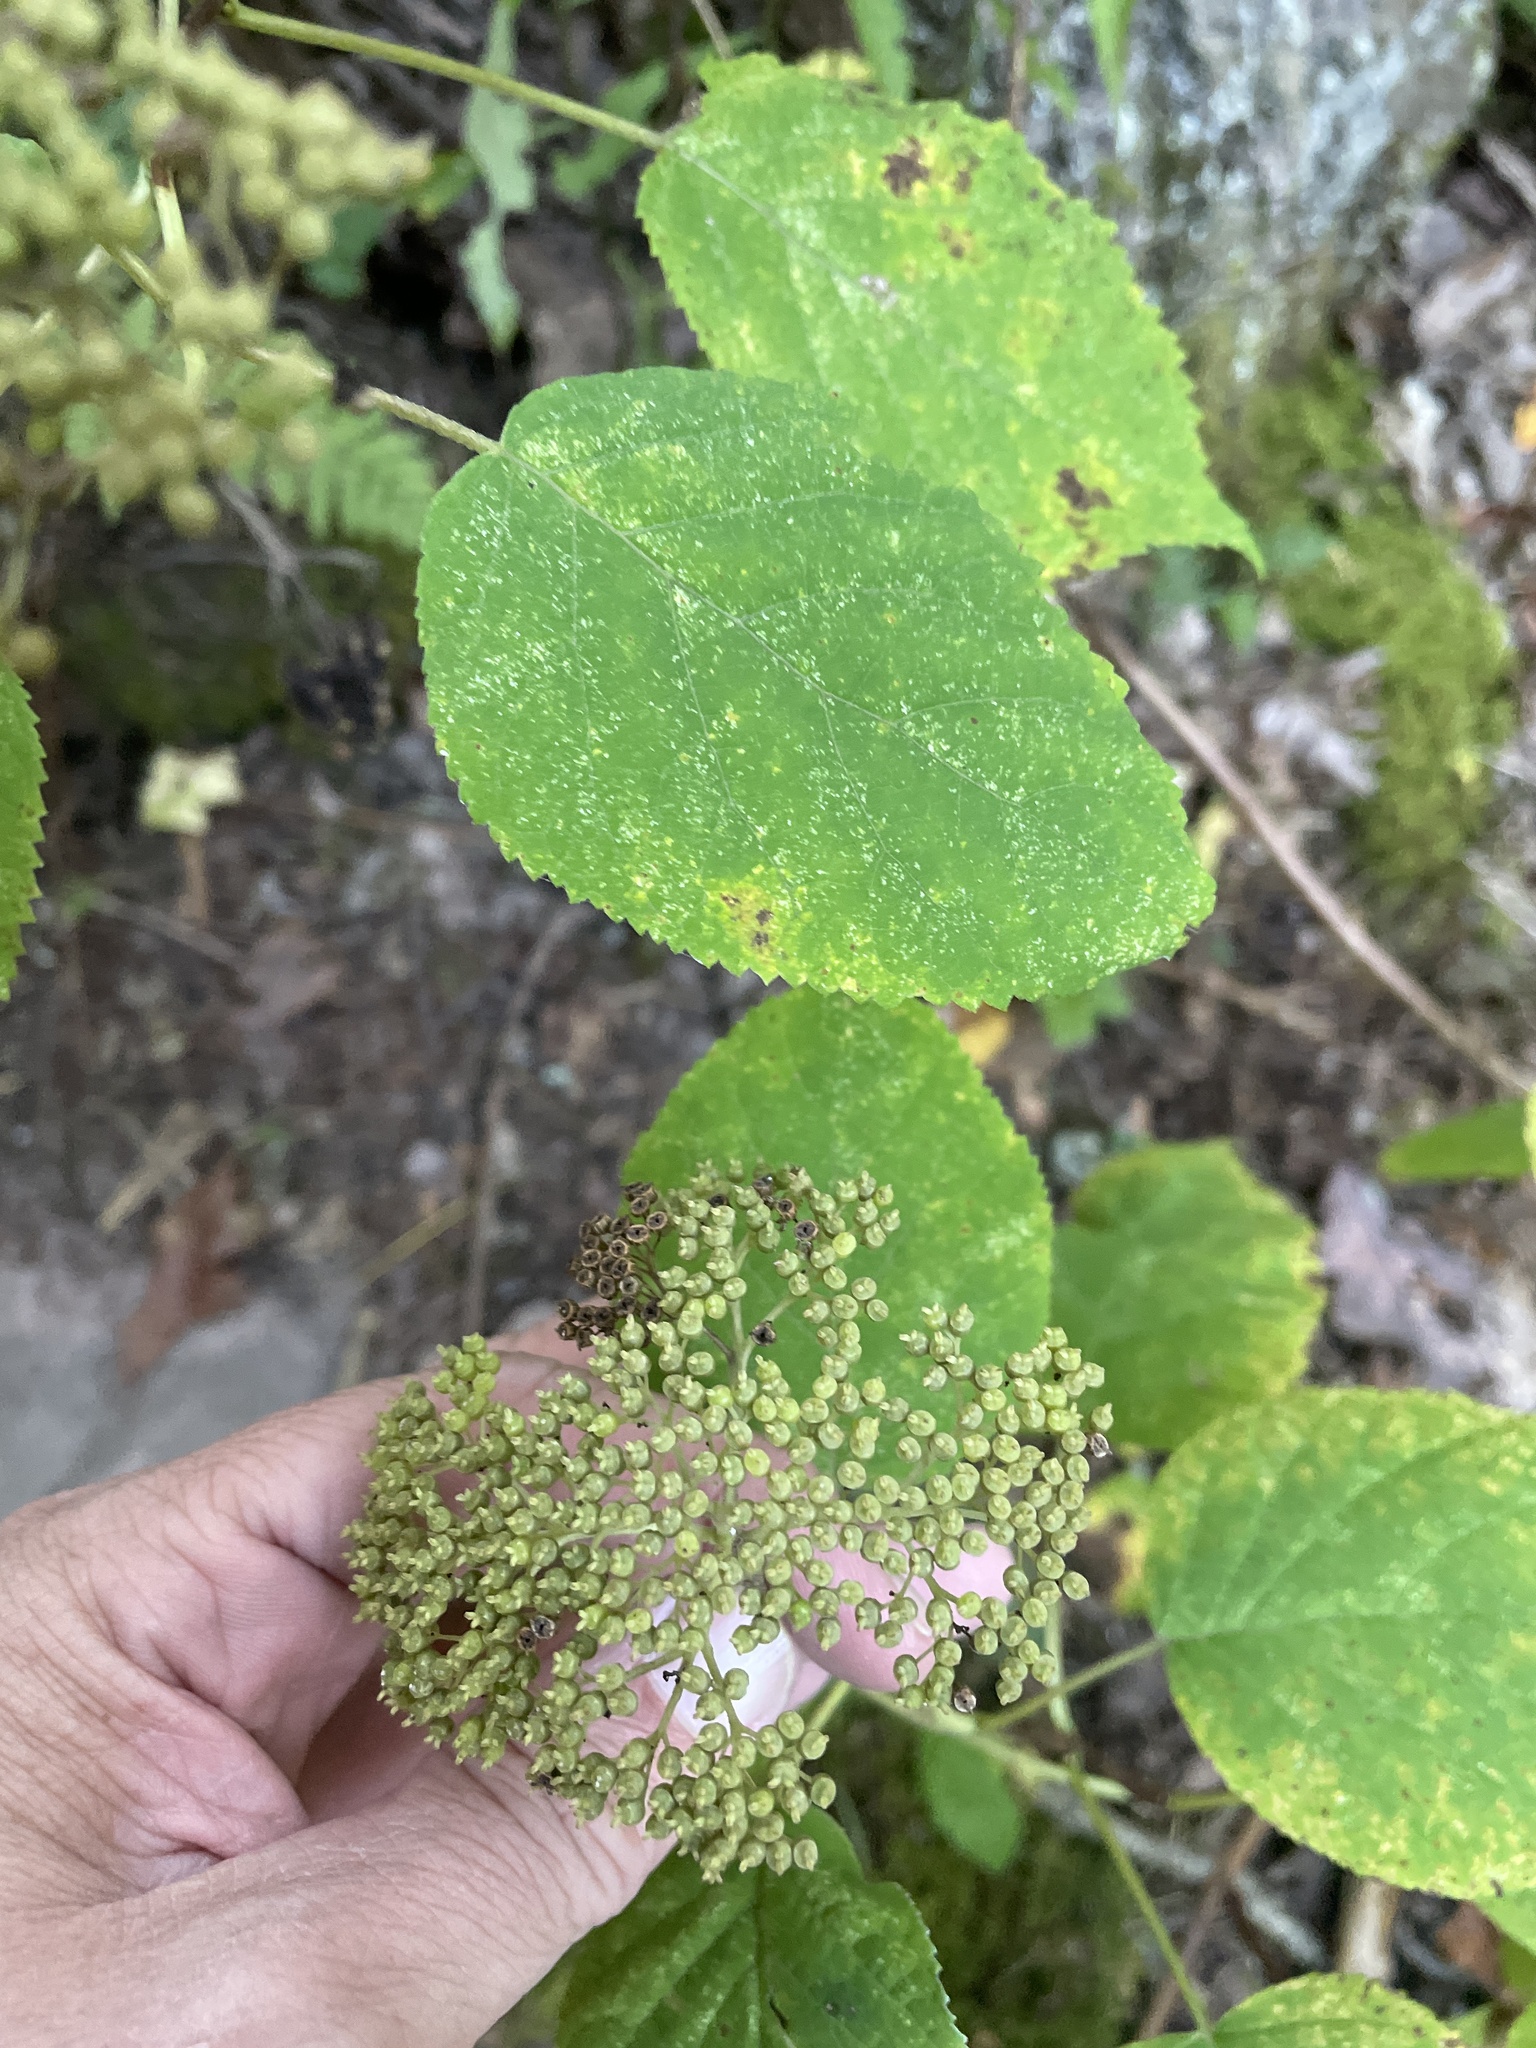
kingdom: Plantae
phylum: Tracheophyta
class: Magnoliopsida
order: Cornales
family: Hydrangeaceae
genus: Hydrangea
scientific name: Hydrangea arborescens
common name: Sevenbark
